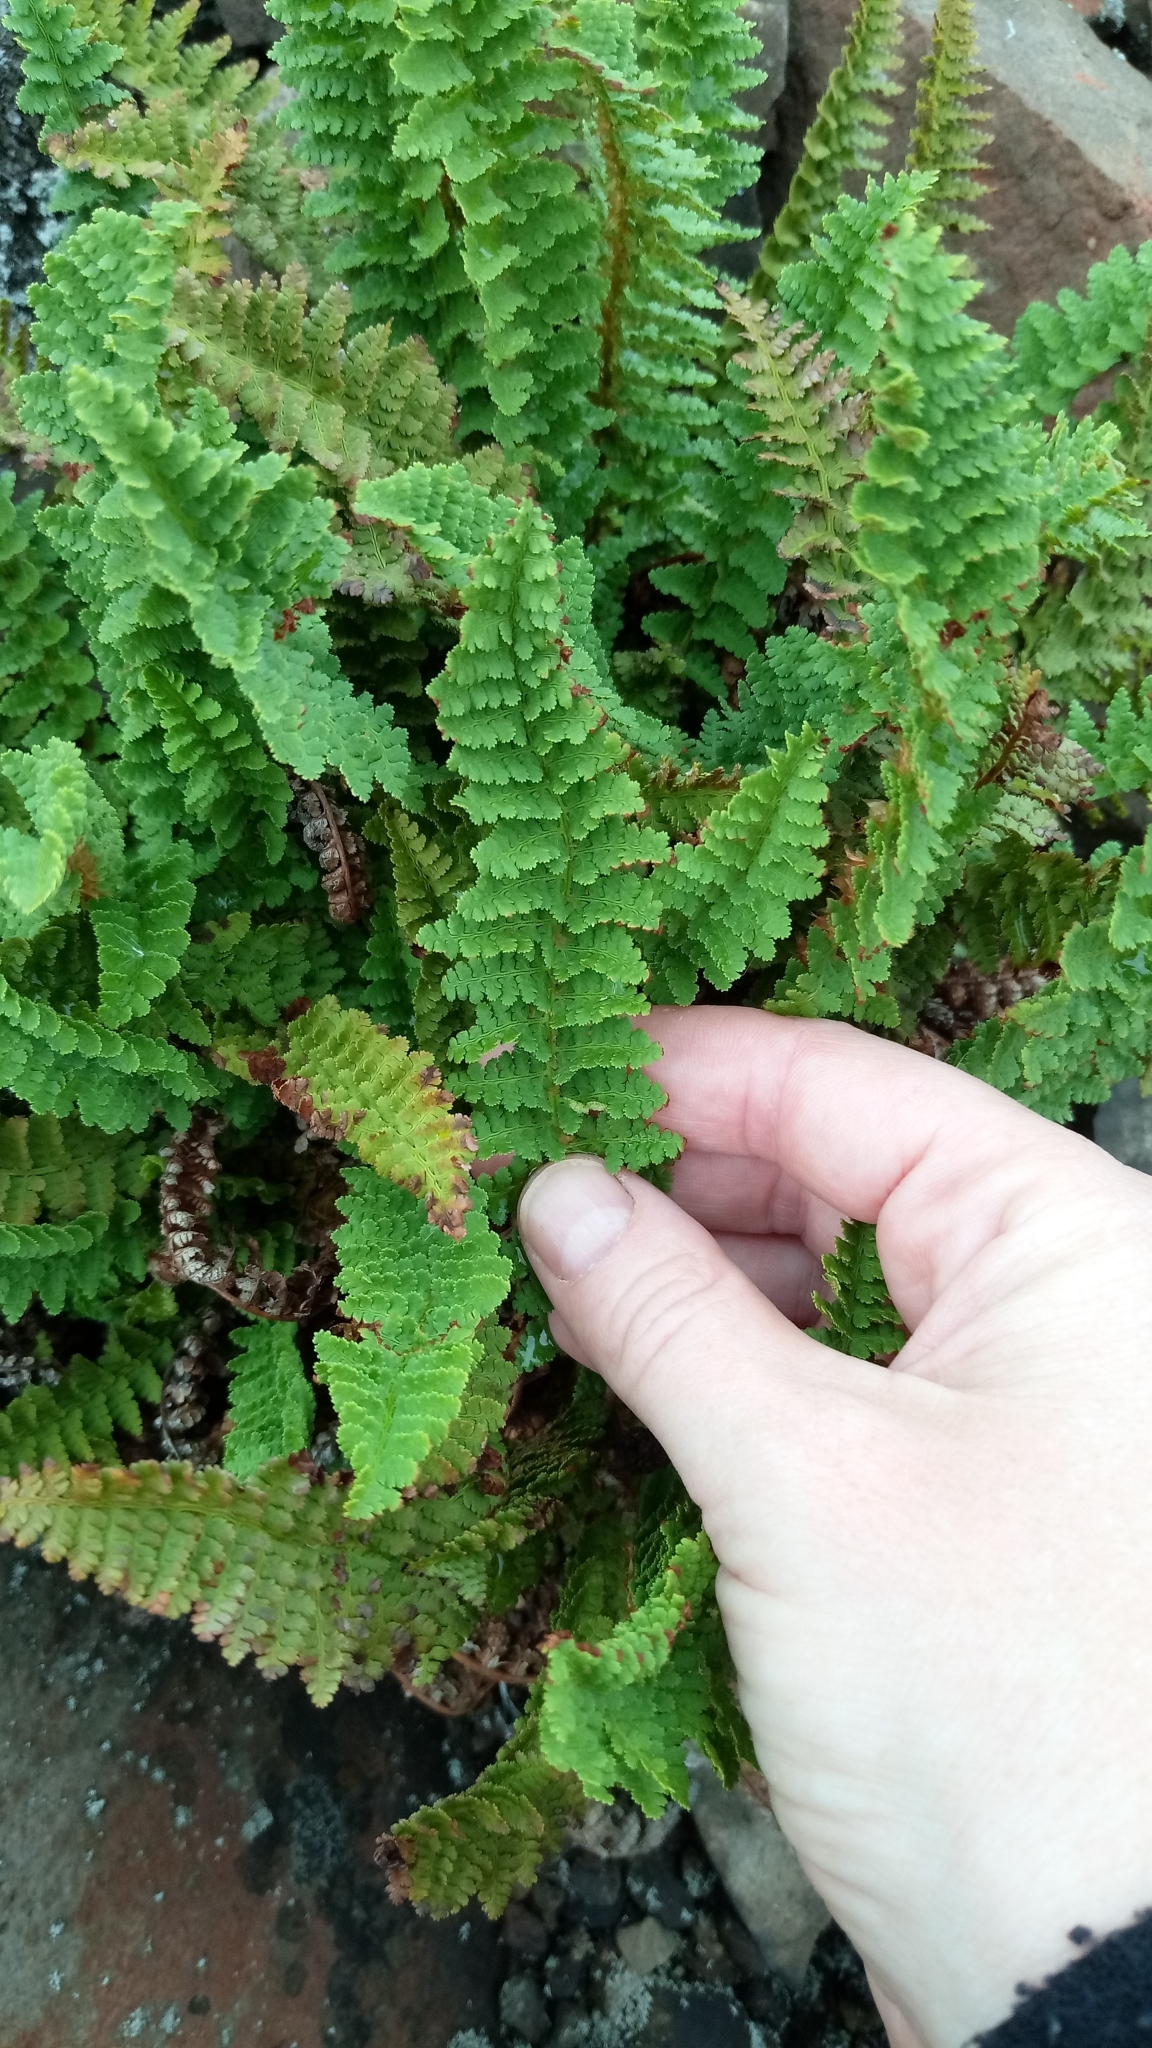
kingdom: Plantae
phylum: Tracheophyta
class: Polypodiopsida
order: Polypodiales
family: Dryopteridaceae
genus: Dryopteris
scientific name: Dryopteris fragrans
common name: Fragrant wood fern
